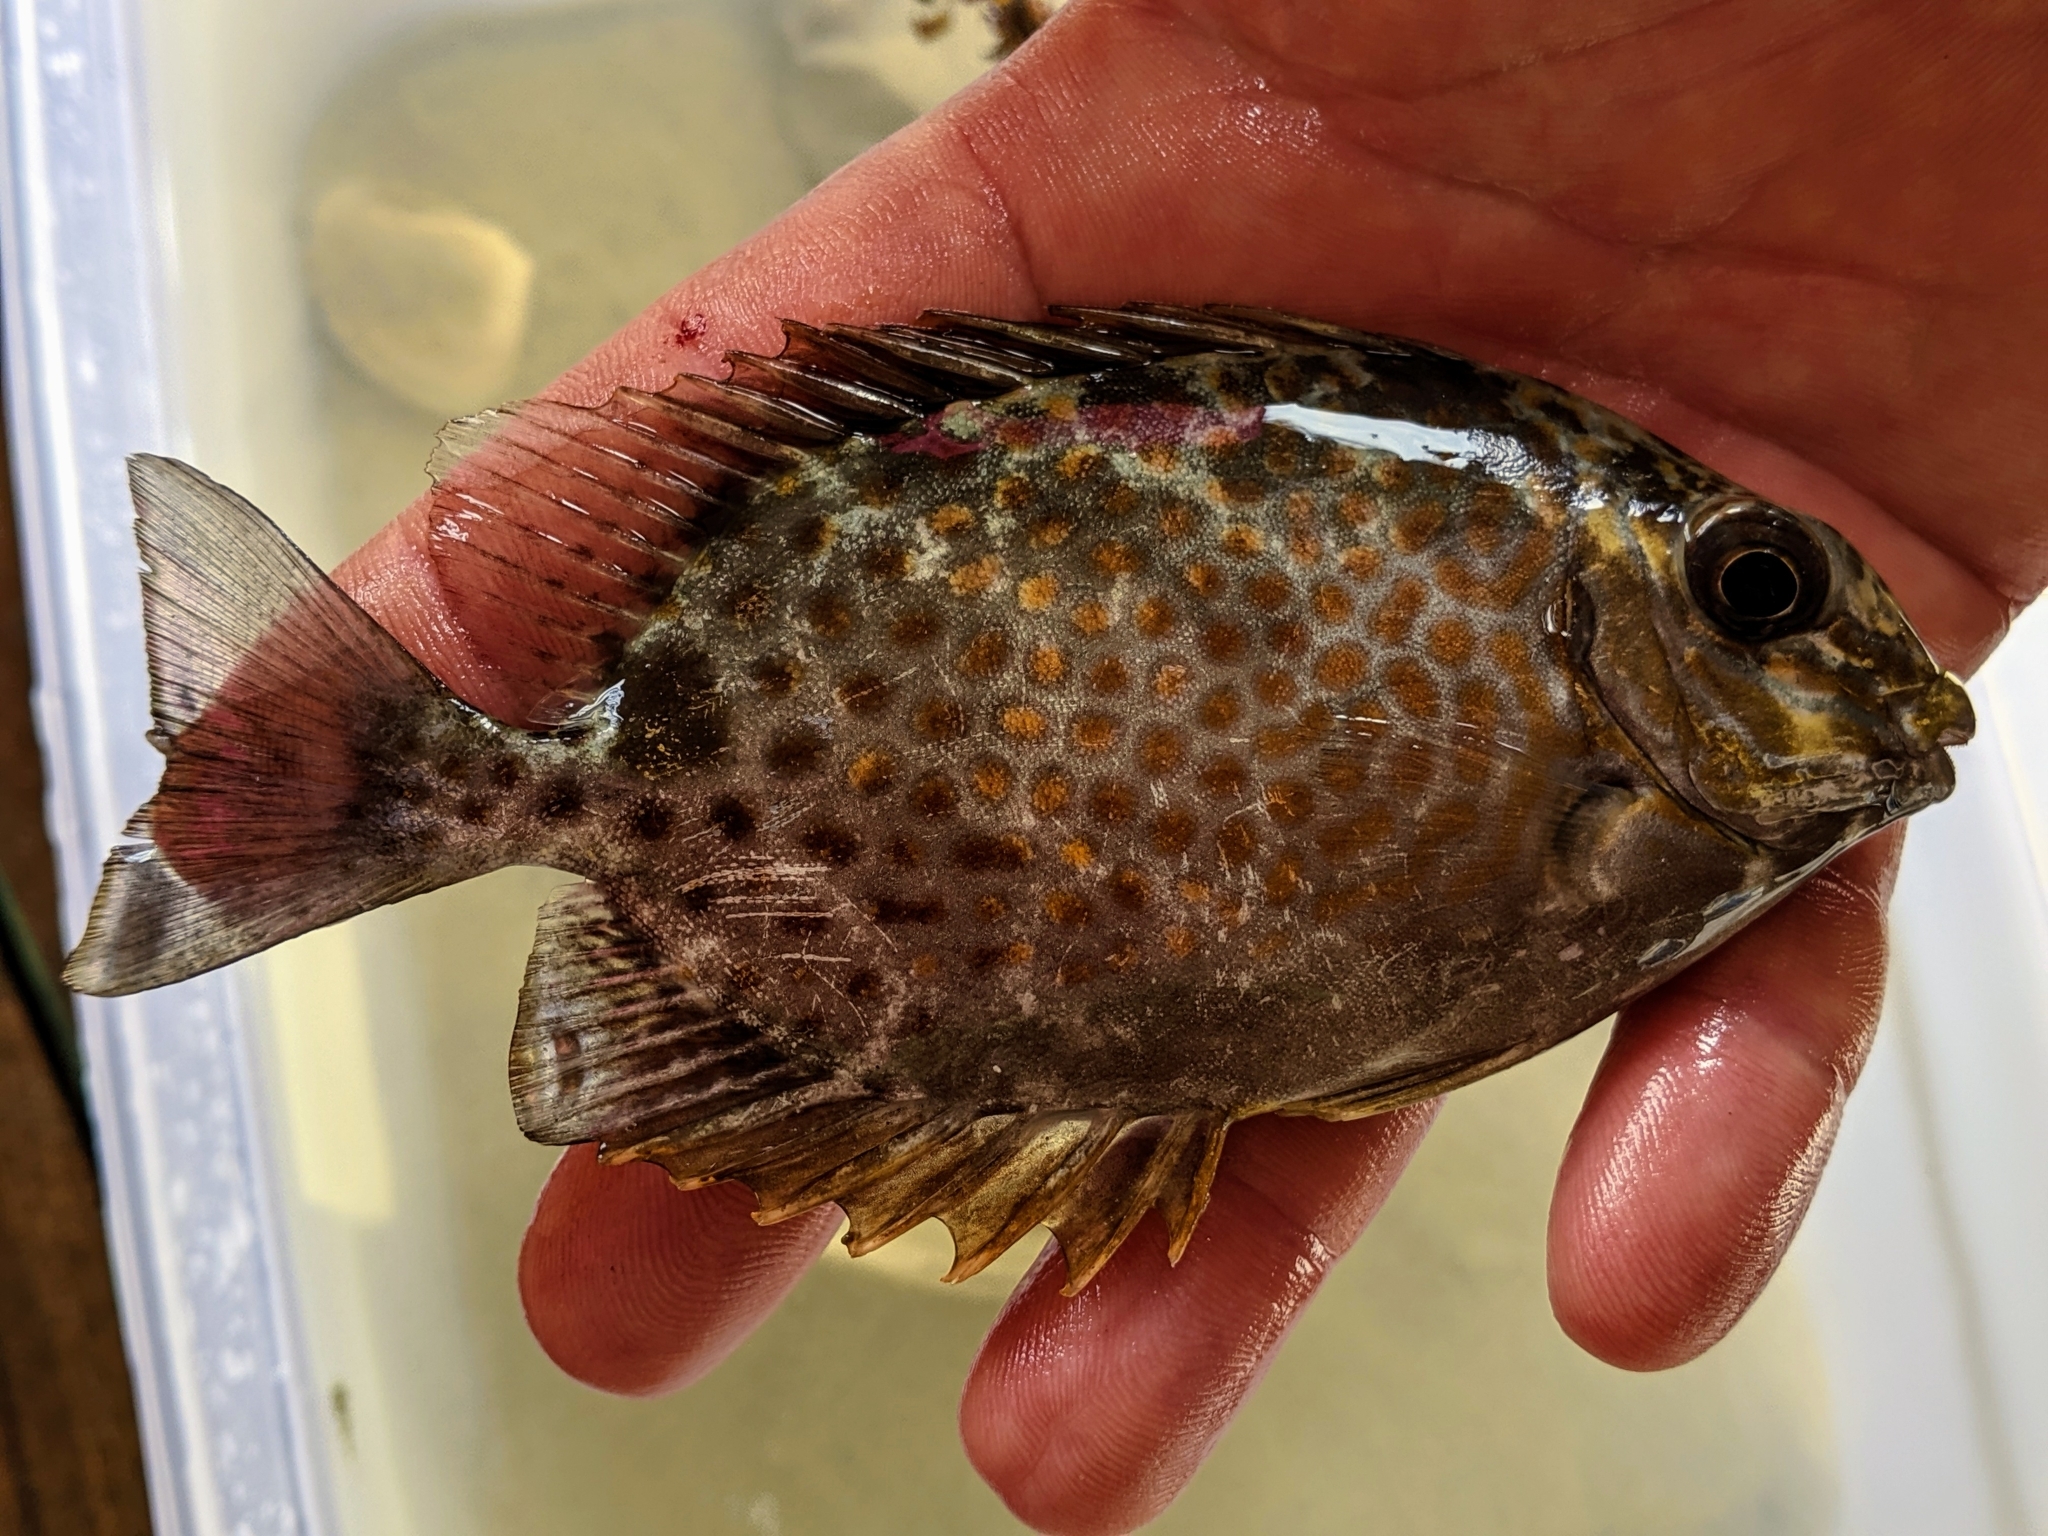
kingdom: Animalia
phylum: Chordata
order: Perciformes
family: Siganidae
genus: Siganus
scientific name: Siganus guttatus
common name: Golden rabbitfish
